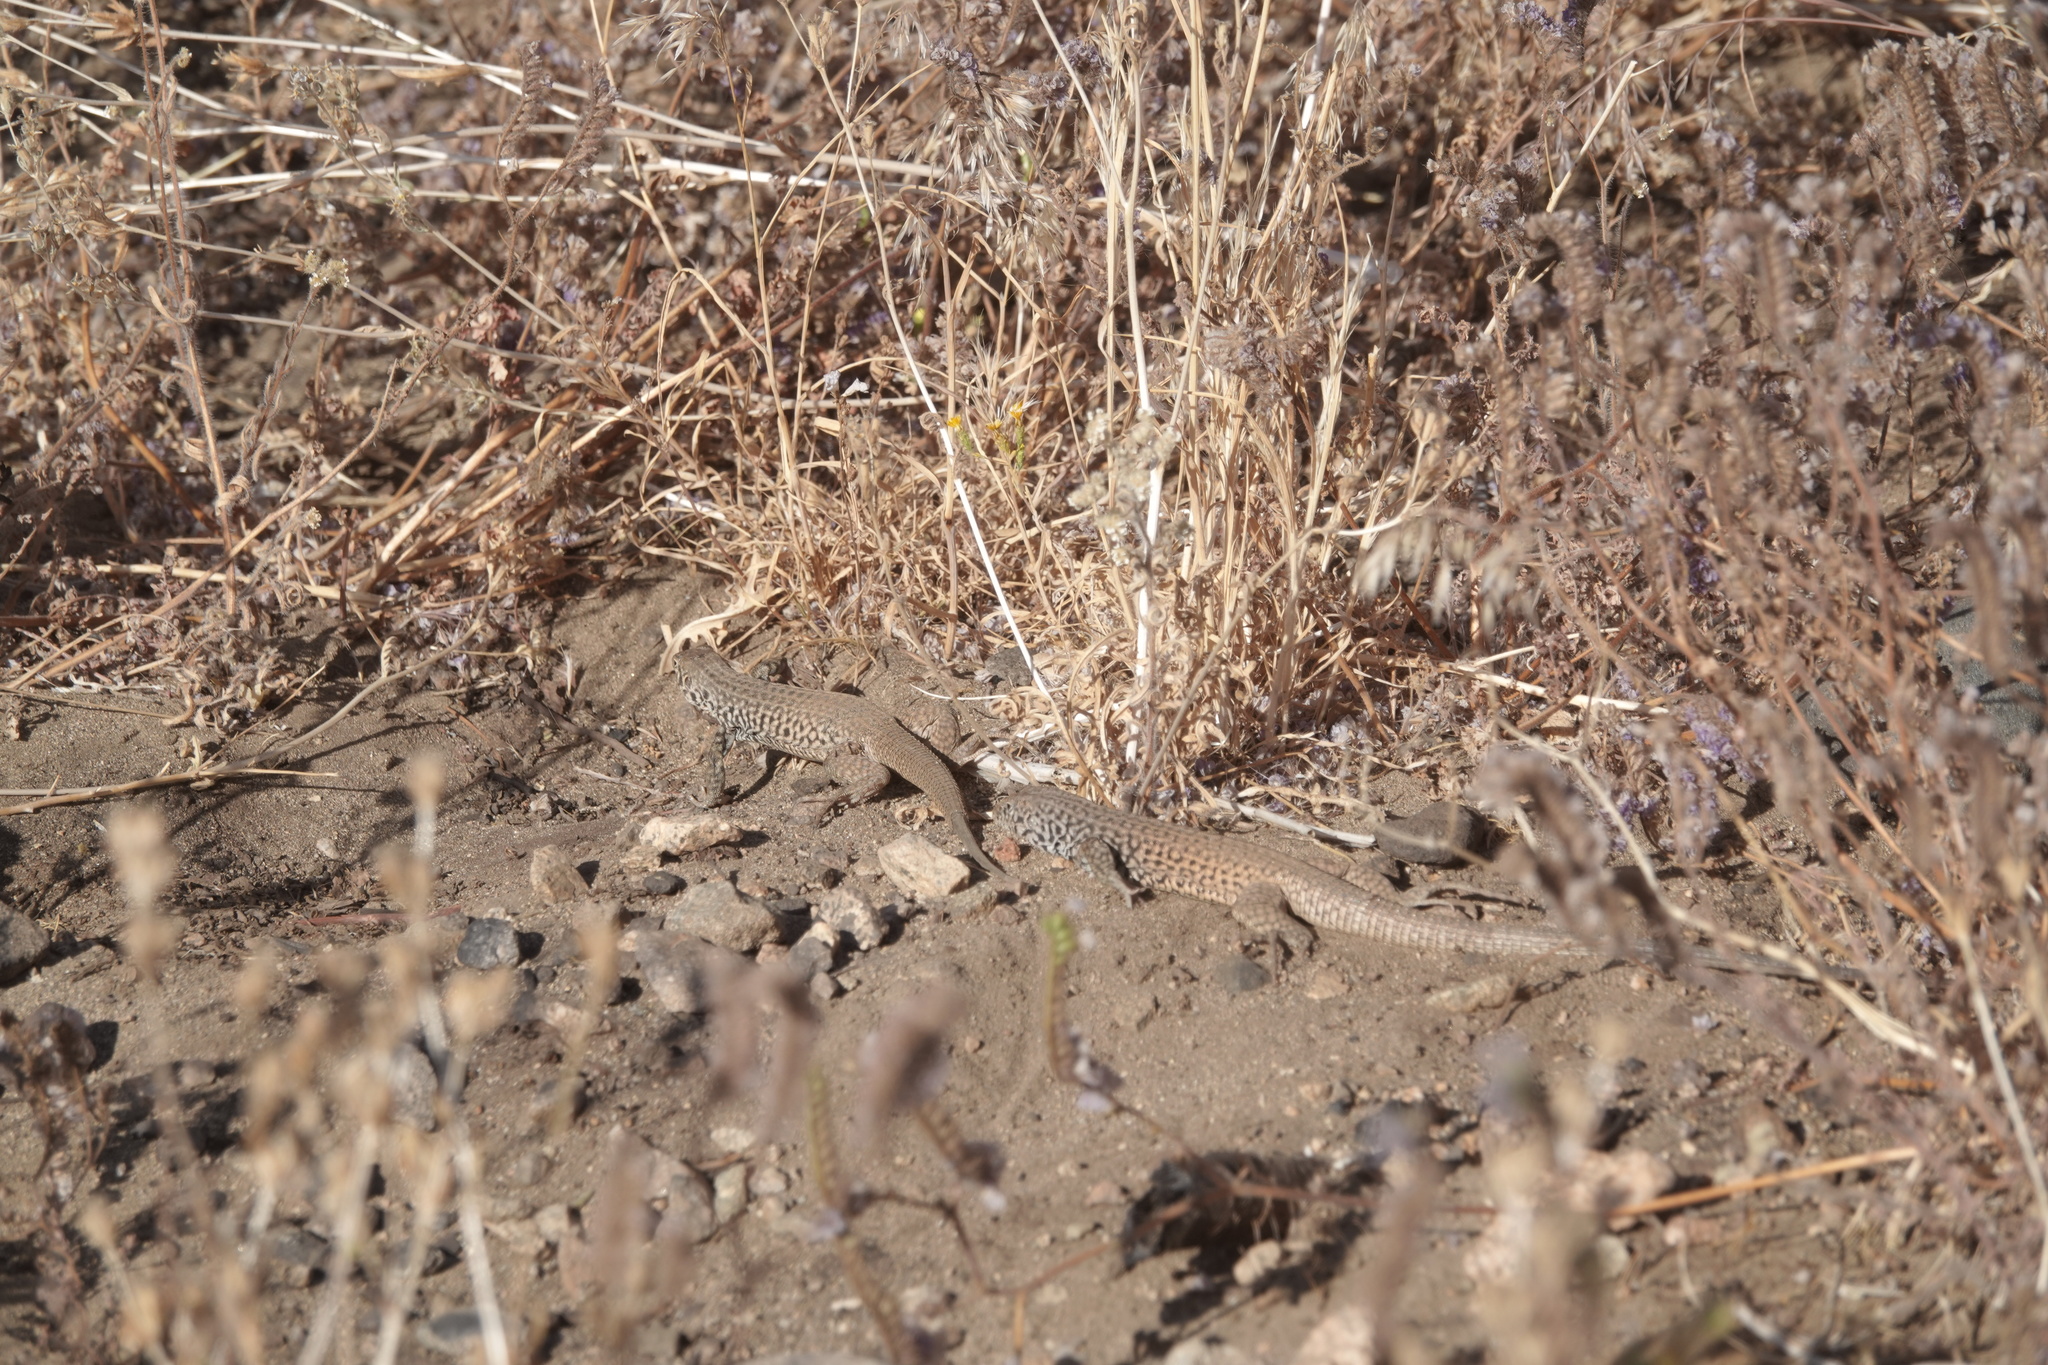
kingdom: Animalia
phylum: Chordata
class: Squamata
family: Teiidae
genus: Aspidoscelis
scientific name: Aspidoscelis tigris
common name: Tiger whiptail
